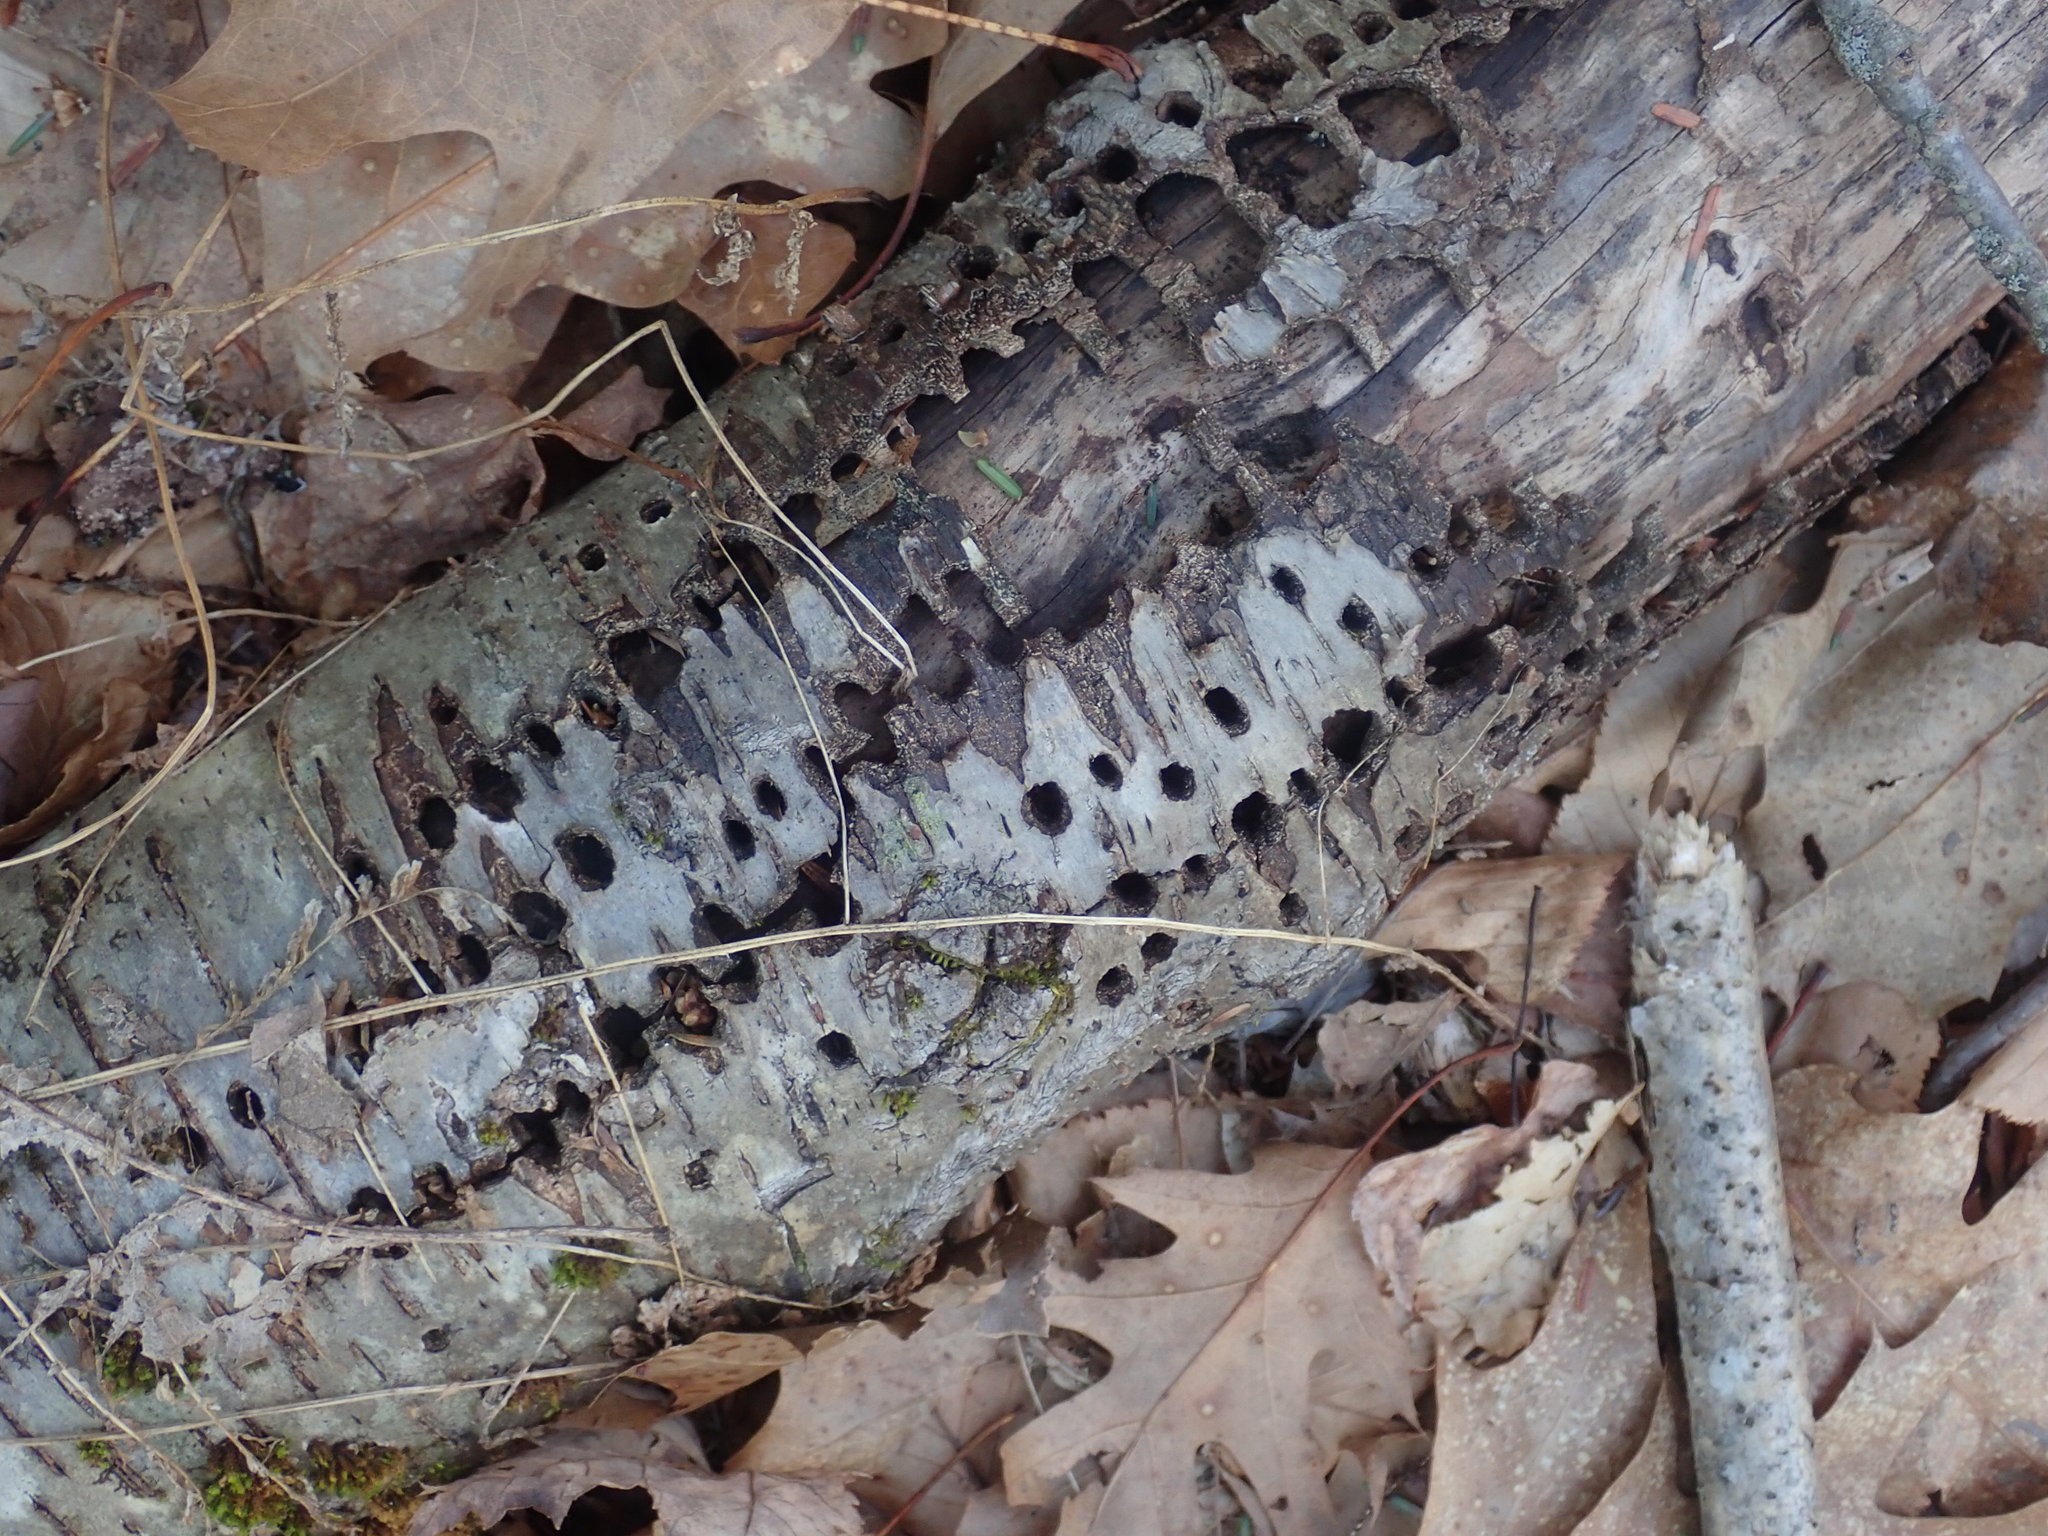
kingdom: Animalia
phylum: Chordata
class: Aves
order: Piciformes
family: Picidae
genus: Sphyrapicus
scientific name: Sphyrapicus varius
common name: Yellow-bellied sapsucker
